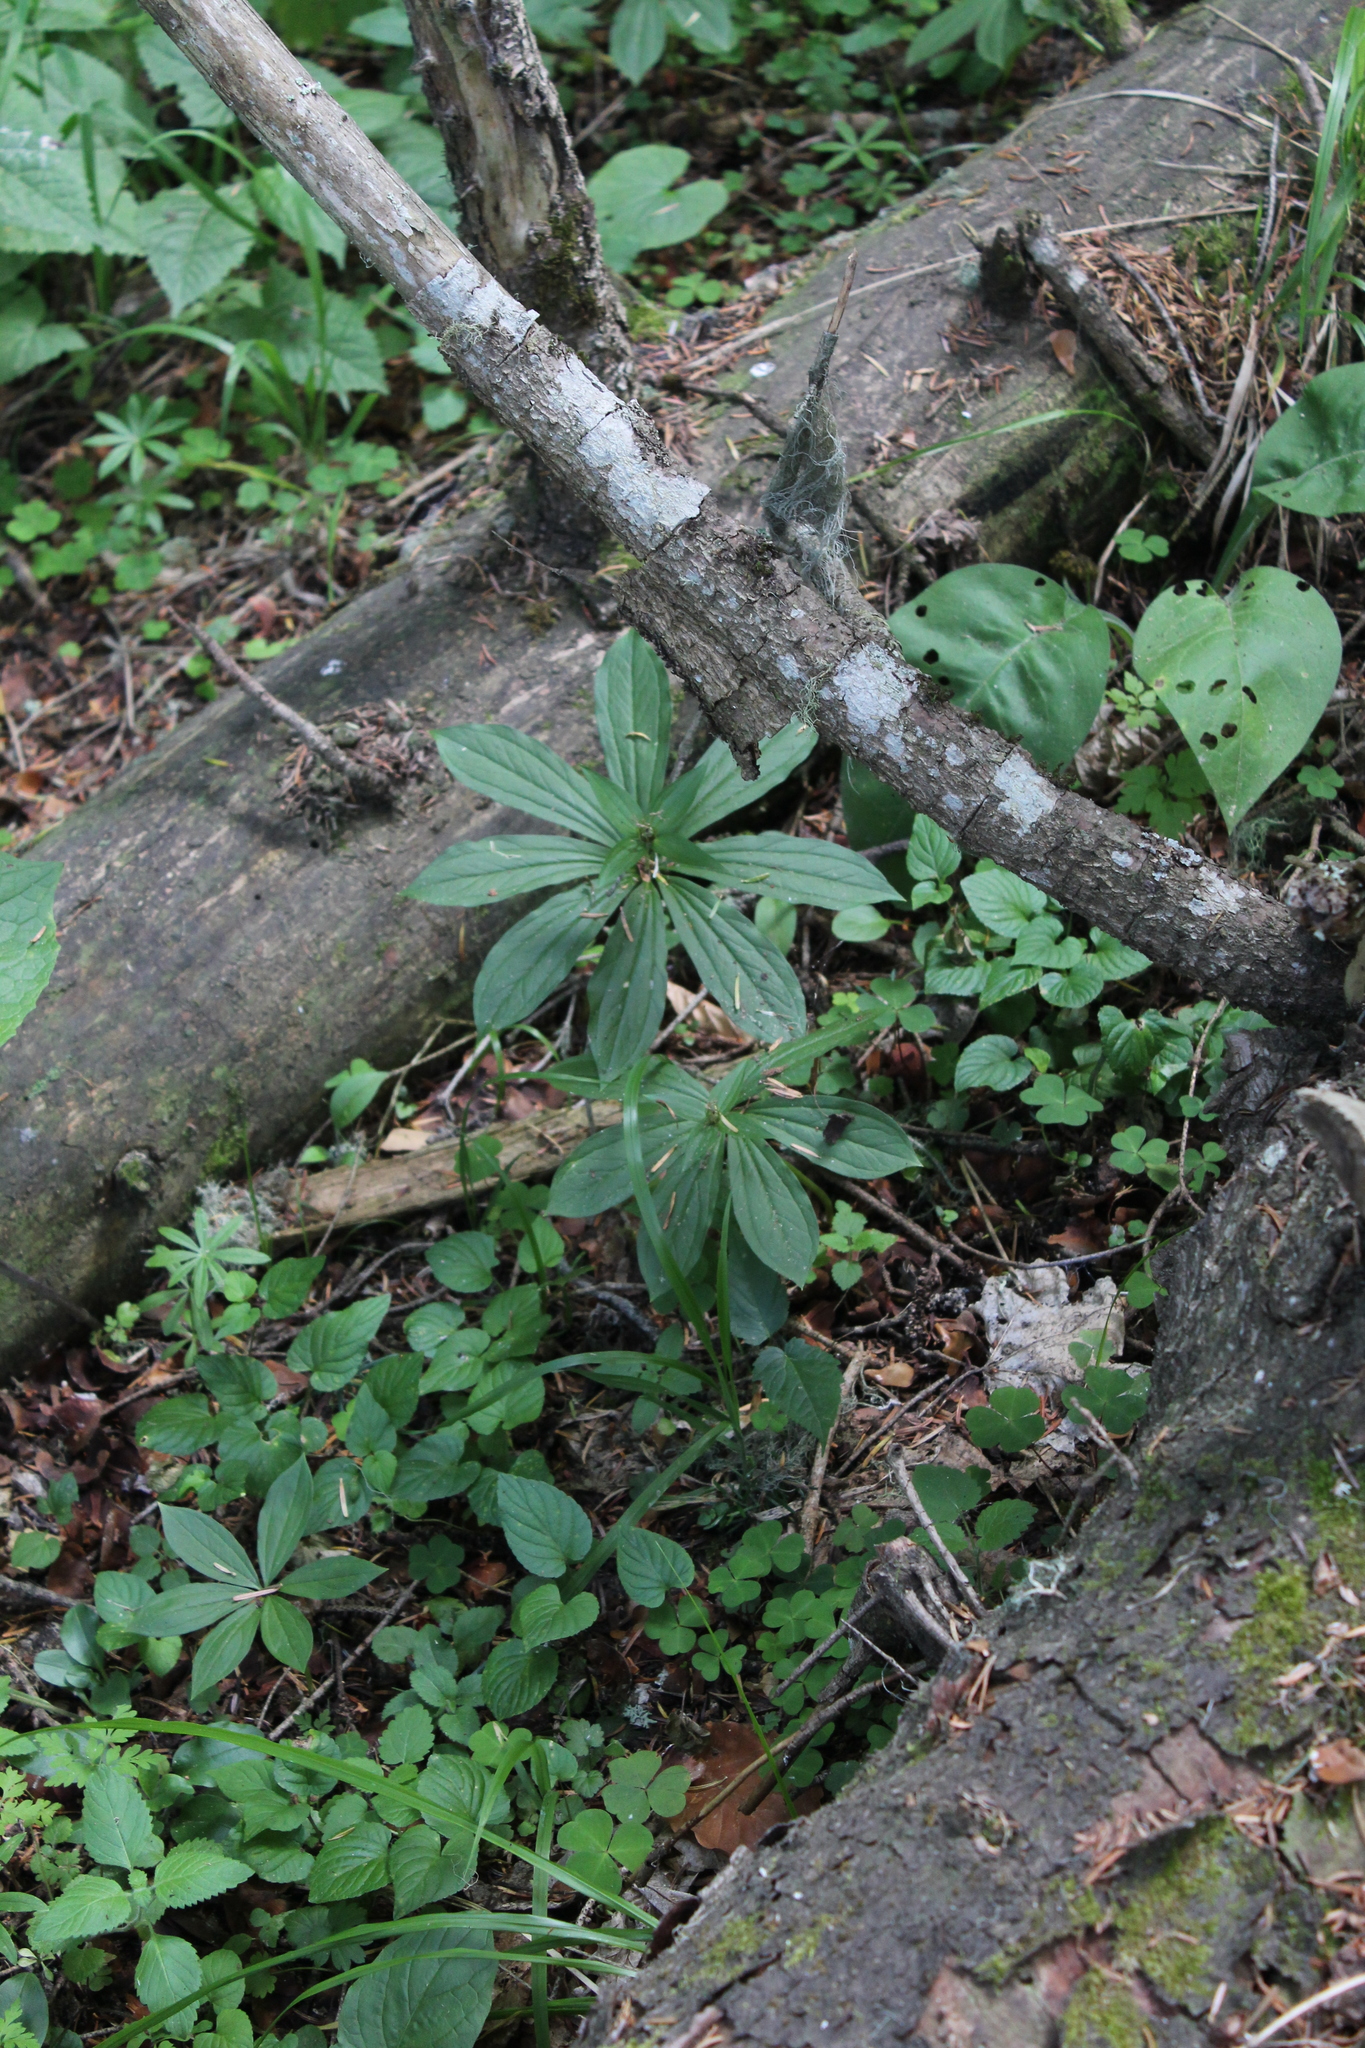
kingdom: Plantae
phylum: Tracheophyta
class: Liliopsida
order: Liliales
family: Melanthiaceae
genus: Paris
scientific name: Paris incompleta
